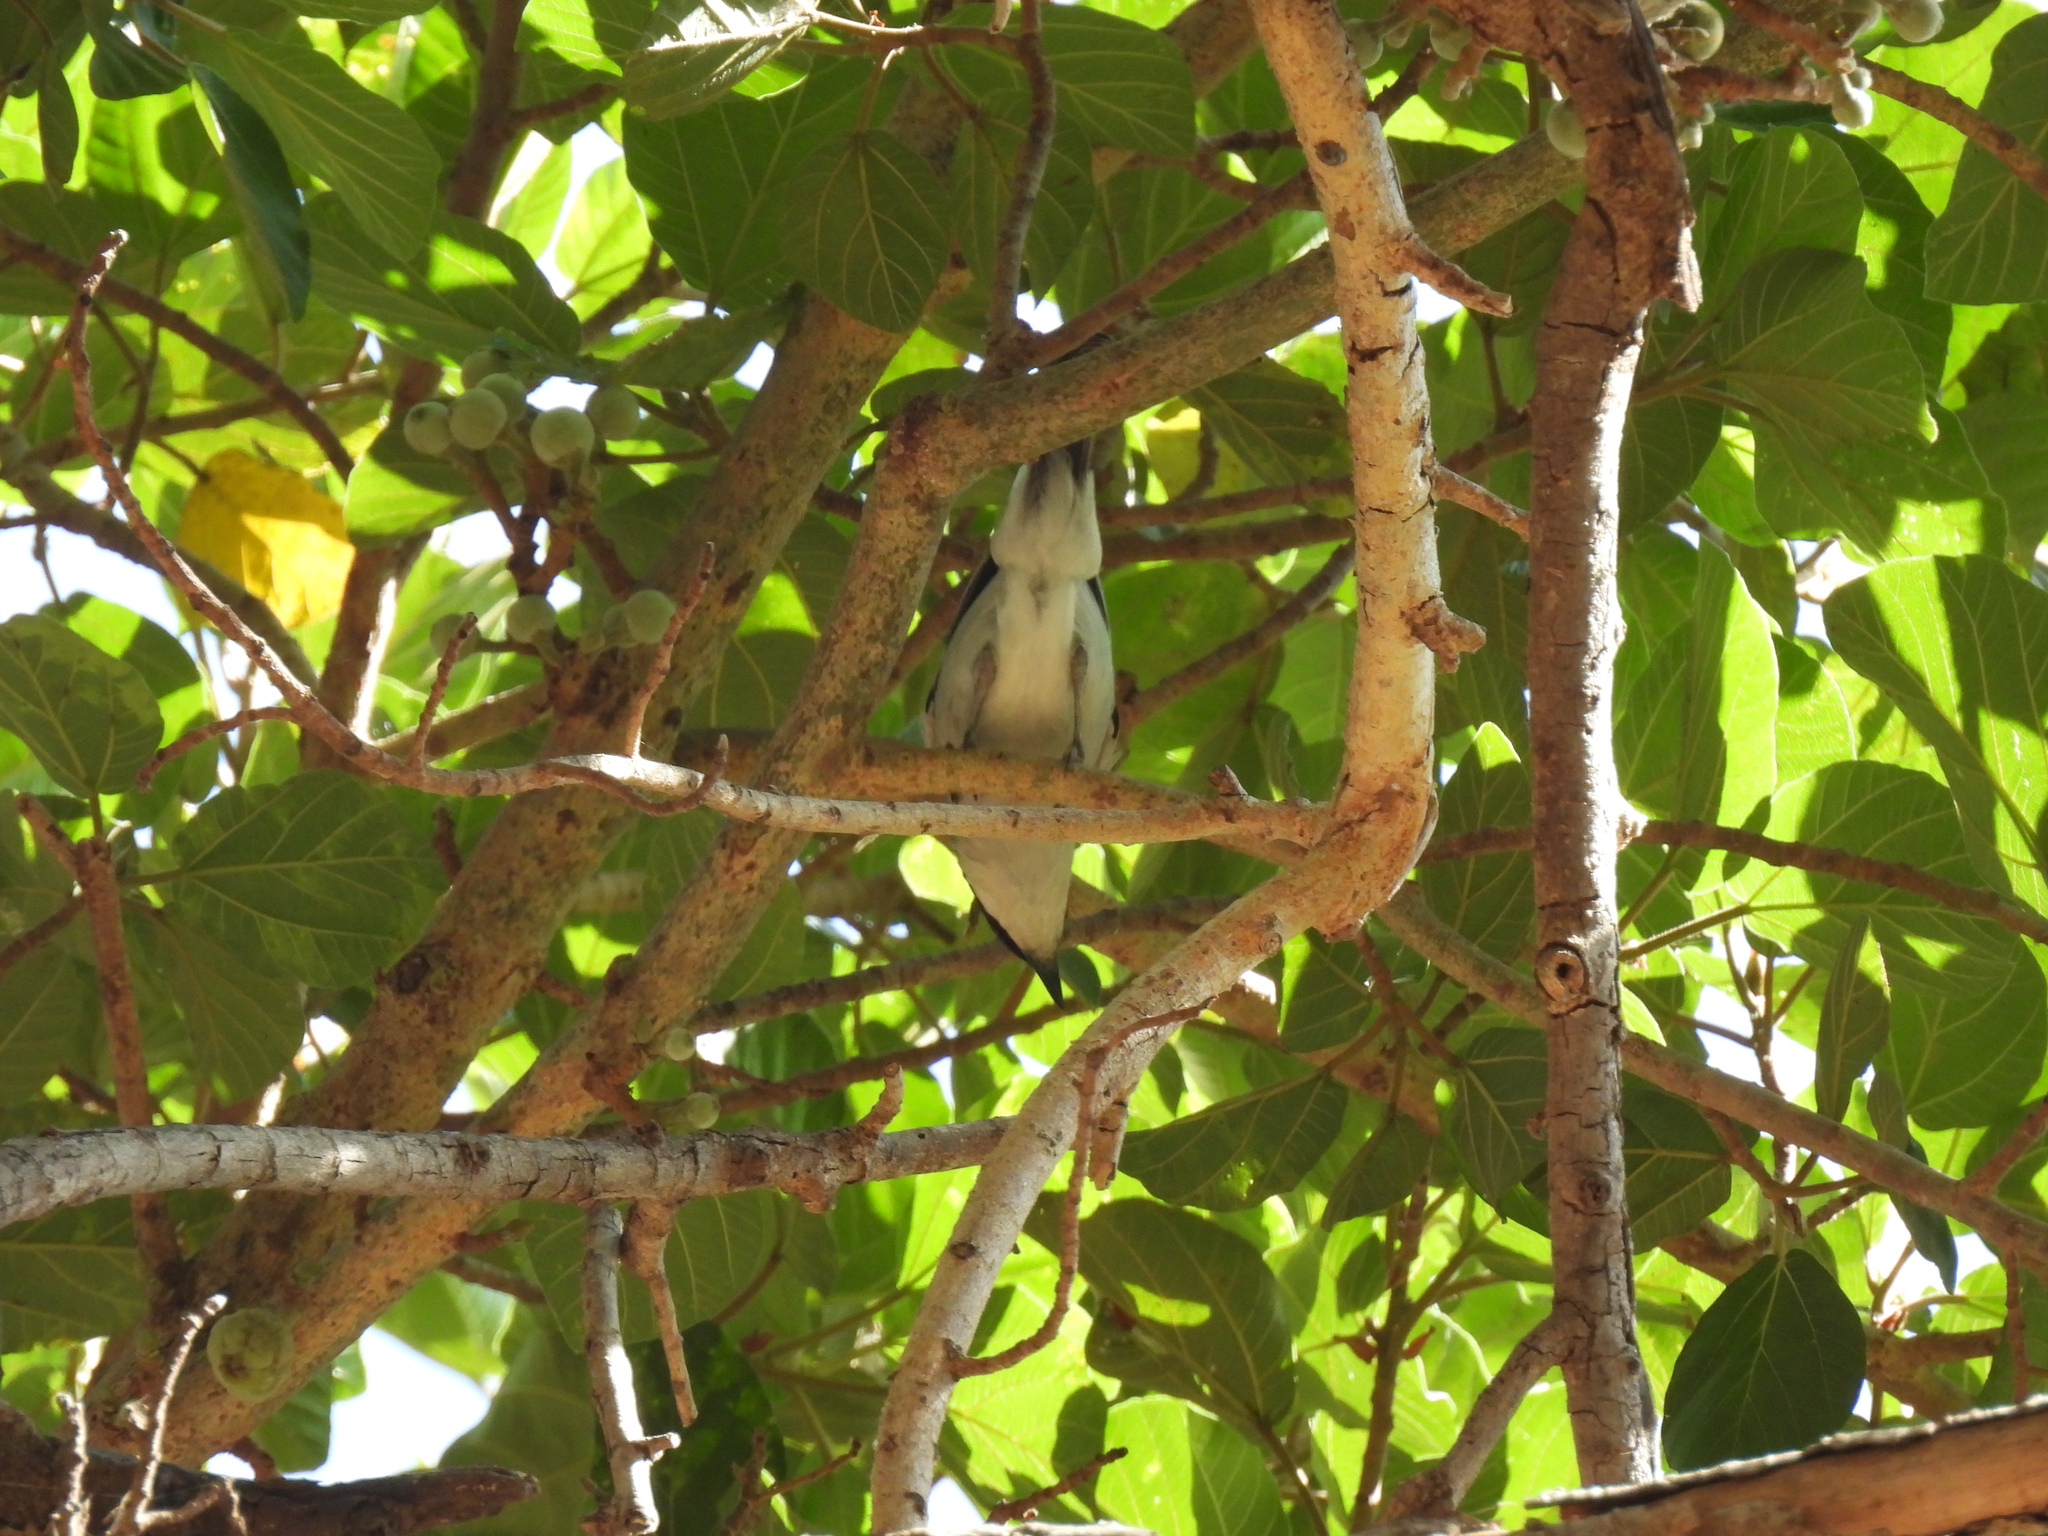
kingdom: Animalia
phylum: Chordata
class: Aves
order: Passeriformes
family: Malaconotidae
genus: Dryoscopus
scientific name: Dryoscopus cubla
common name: Black-backed puffback
